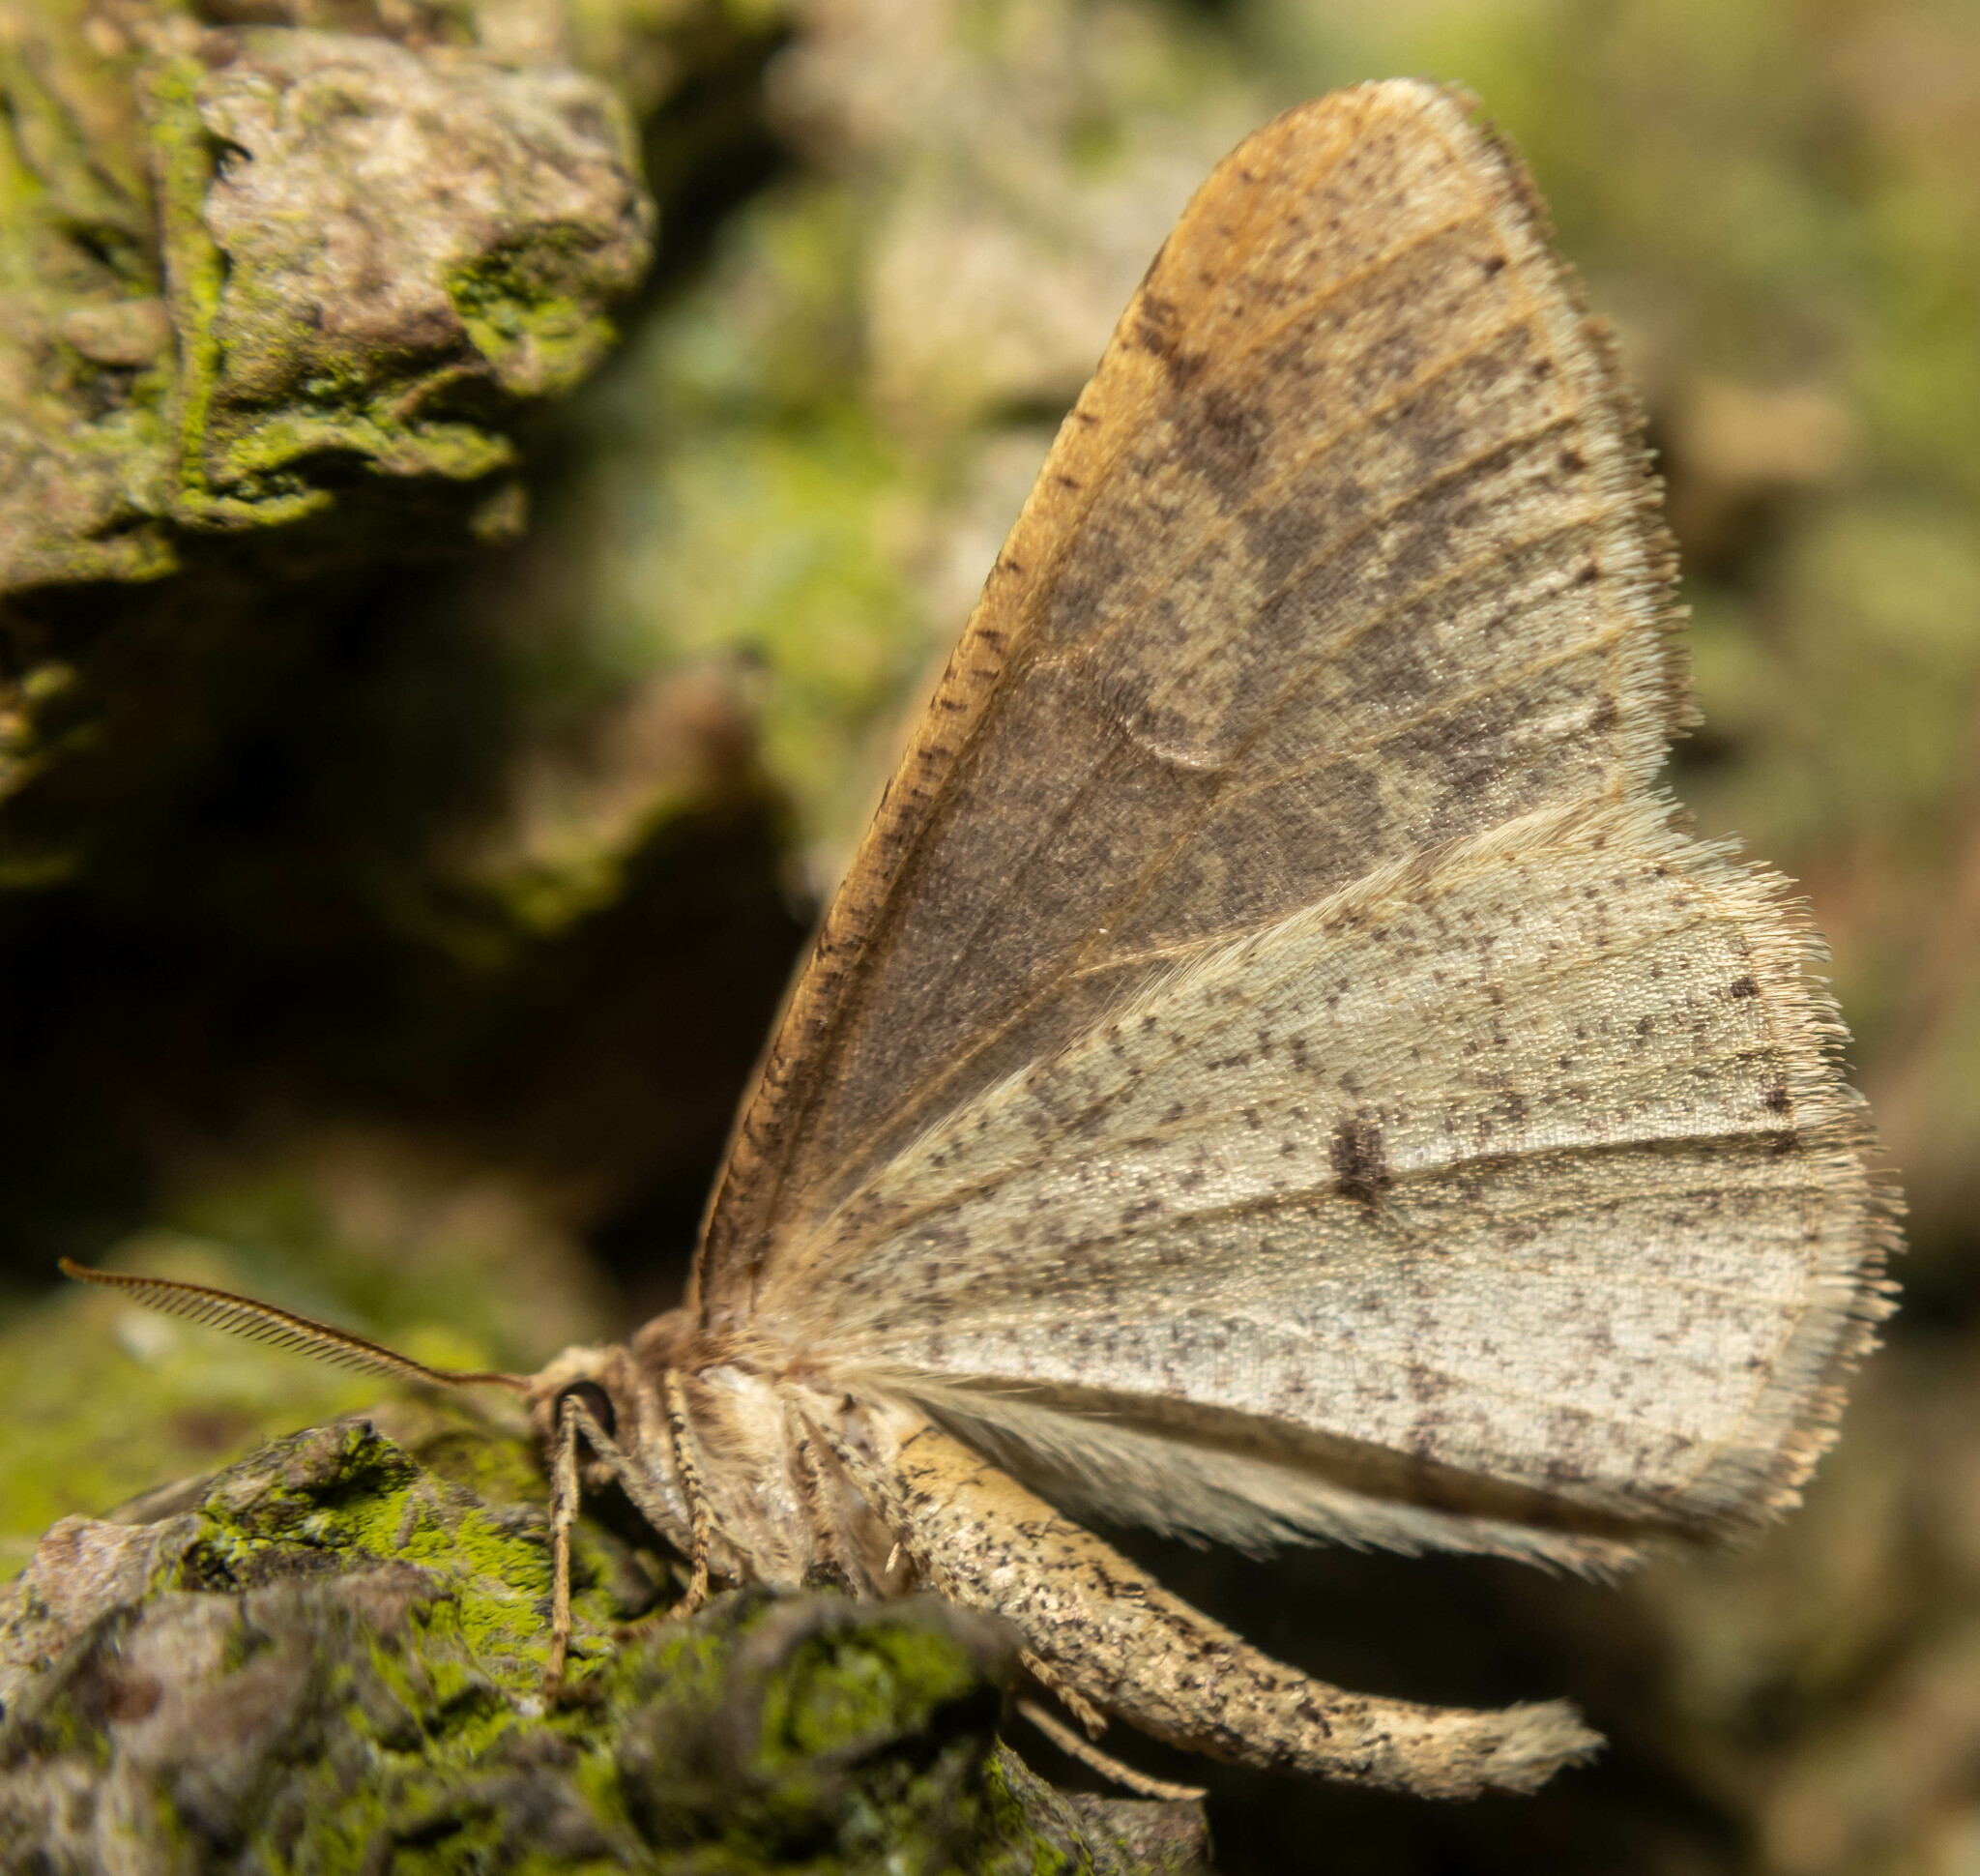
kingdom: Animalia
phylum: Arthropoda
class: Insecta
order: Lepidoptera
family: Geometridae
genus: Agriopis
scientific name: Agriopis marginaria
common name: Dotted border
